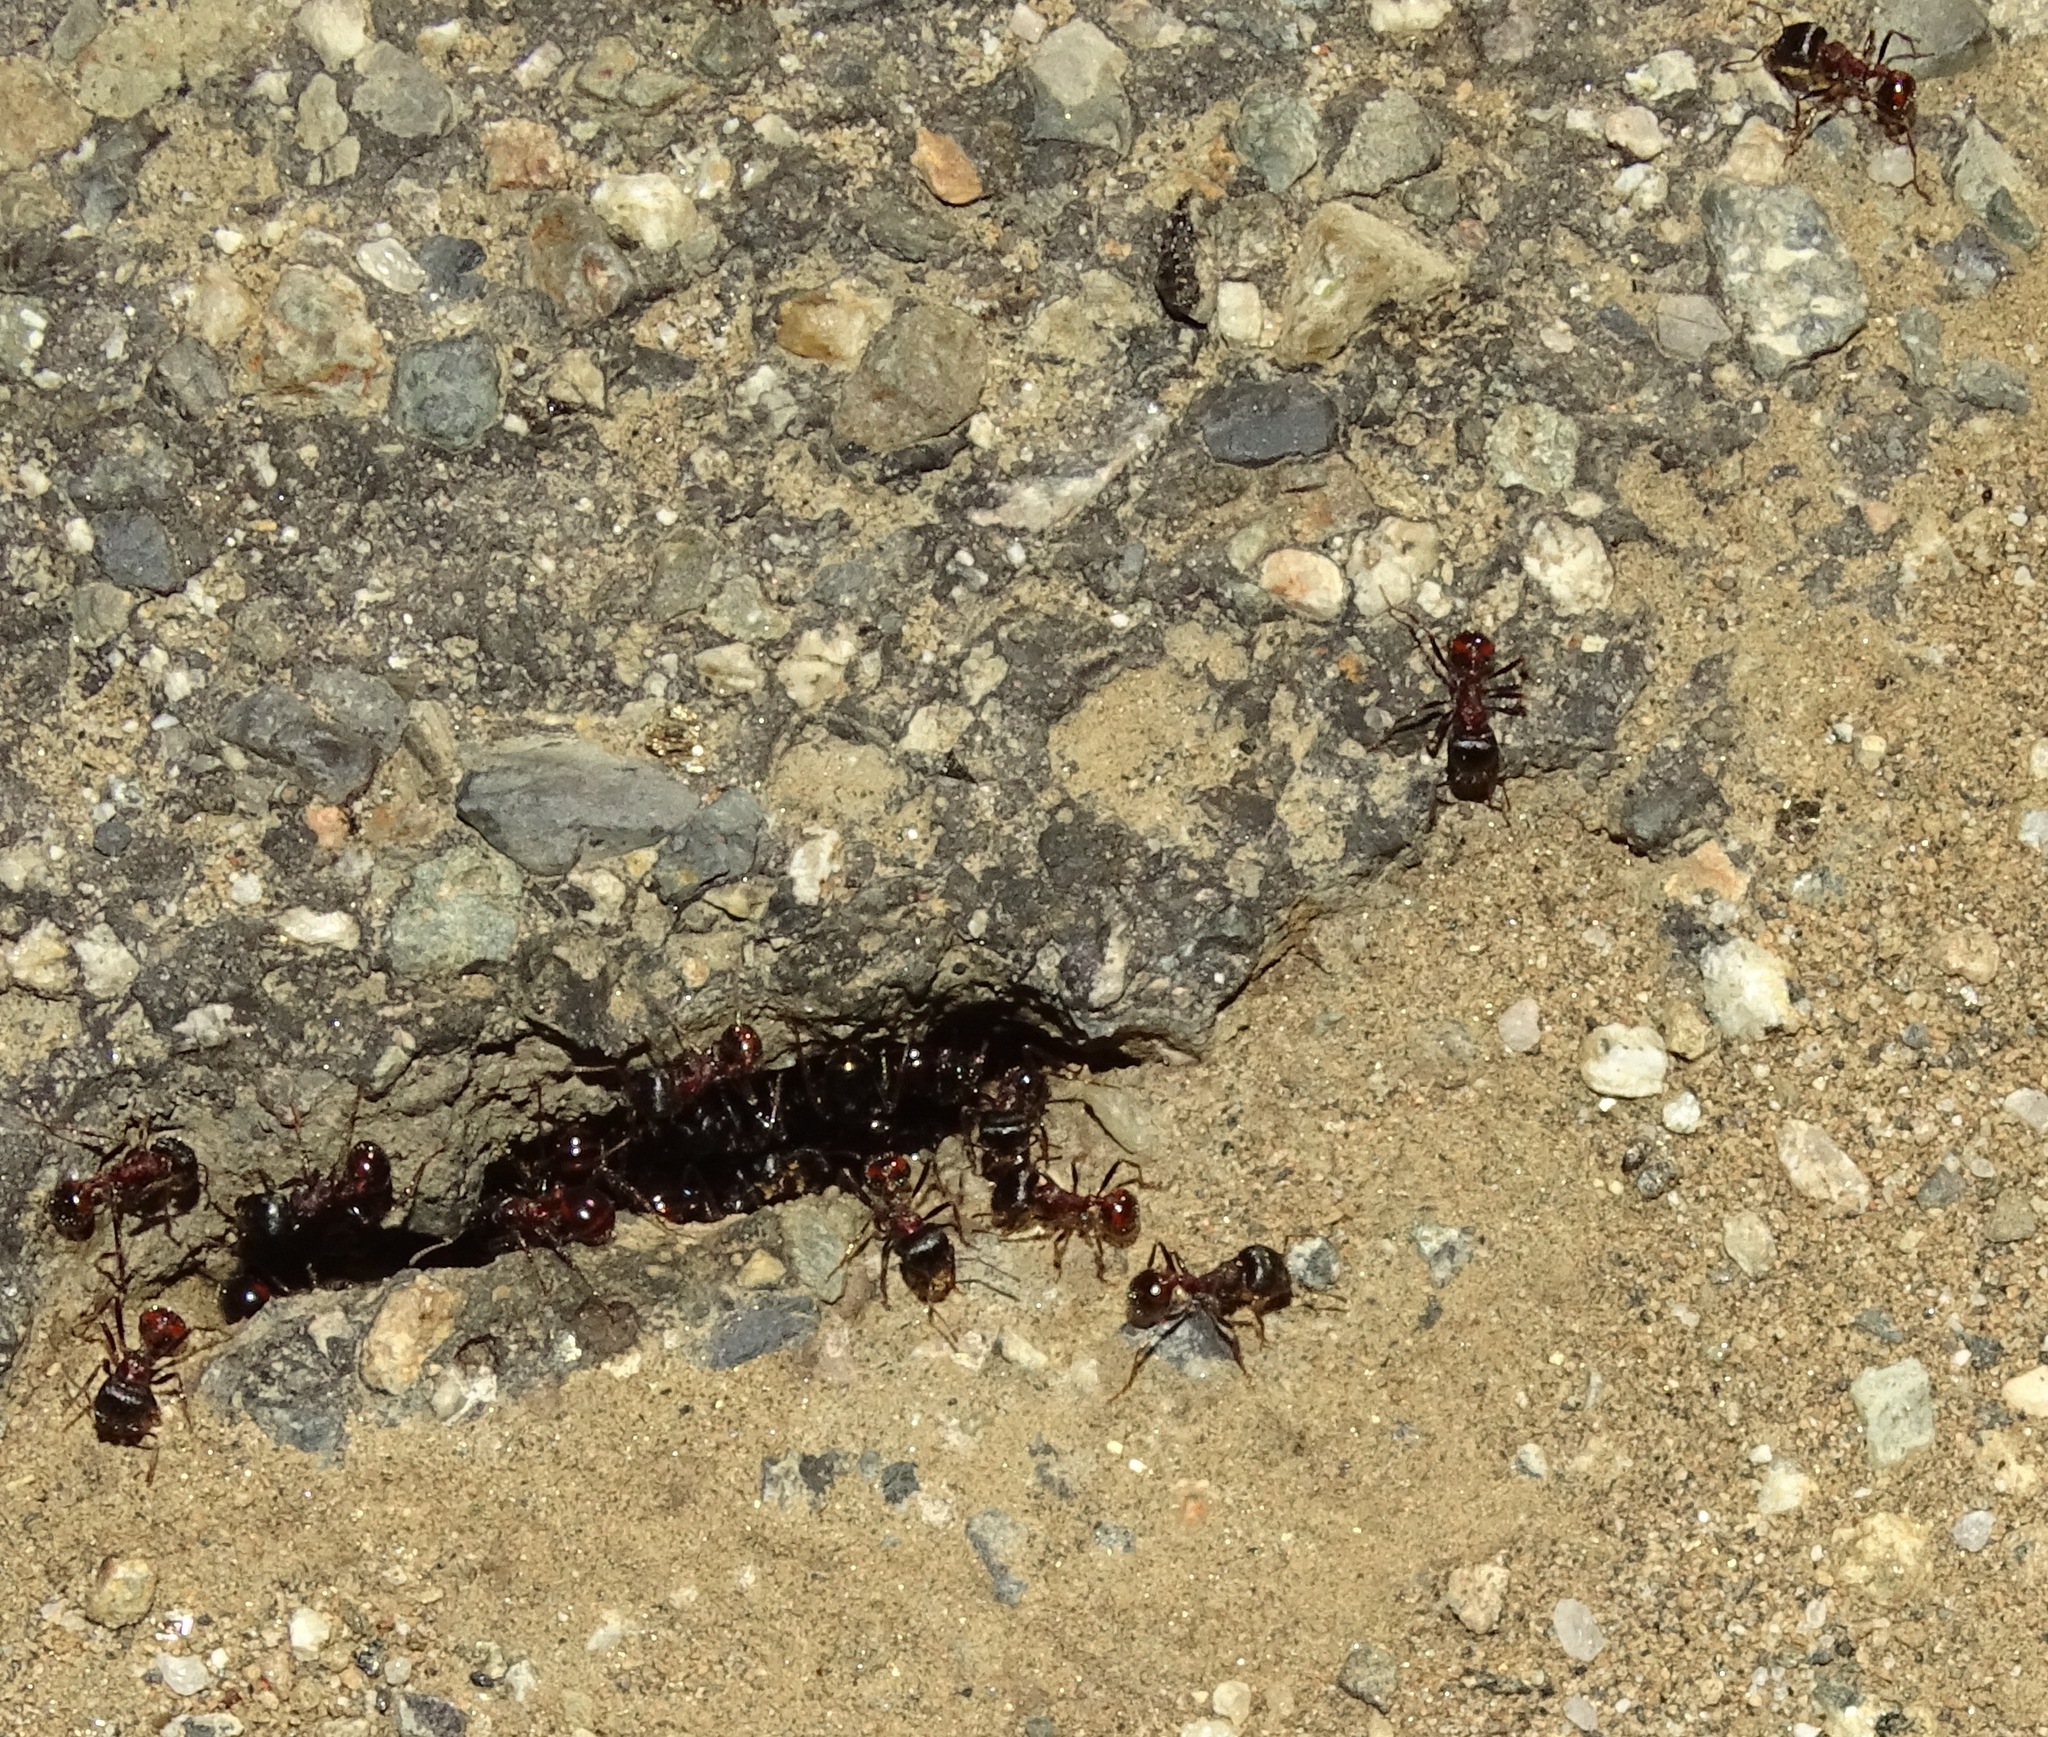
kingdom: Animalia
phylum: Arthropoda
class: Insecta
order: Hymenoptera
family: Formicidae
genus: Pogonomyrmex
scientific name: Pogonomyrmex rugosus
